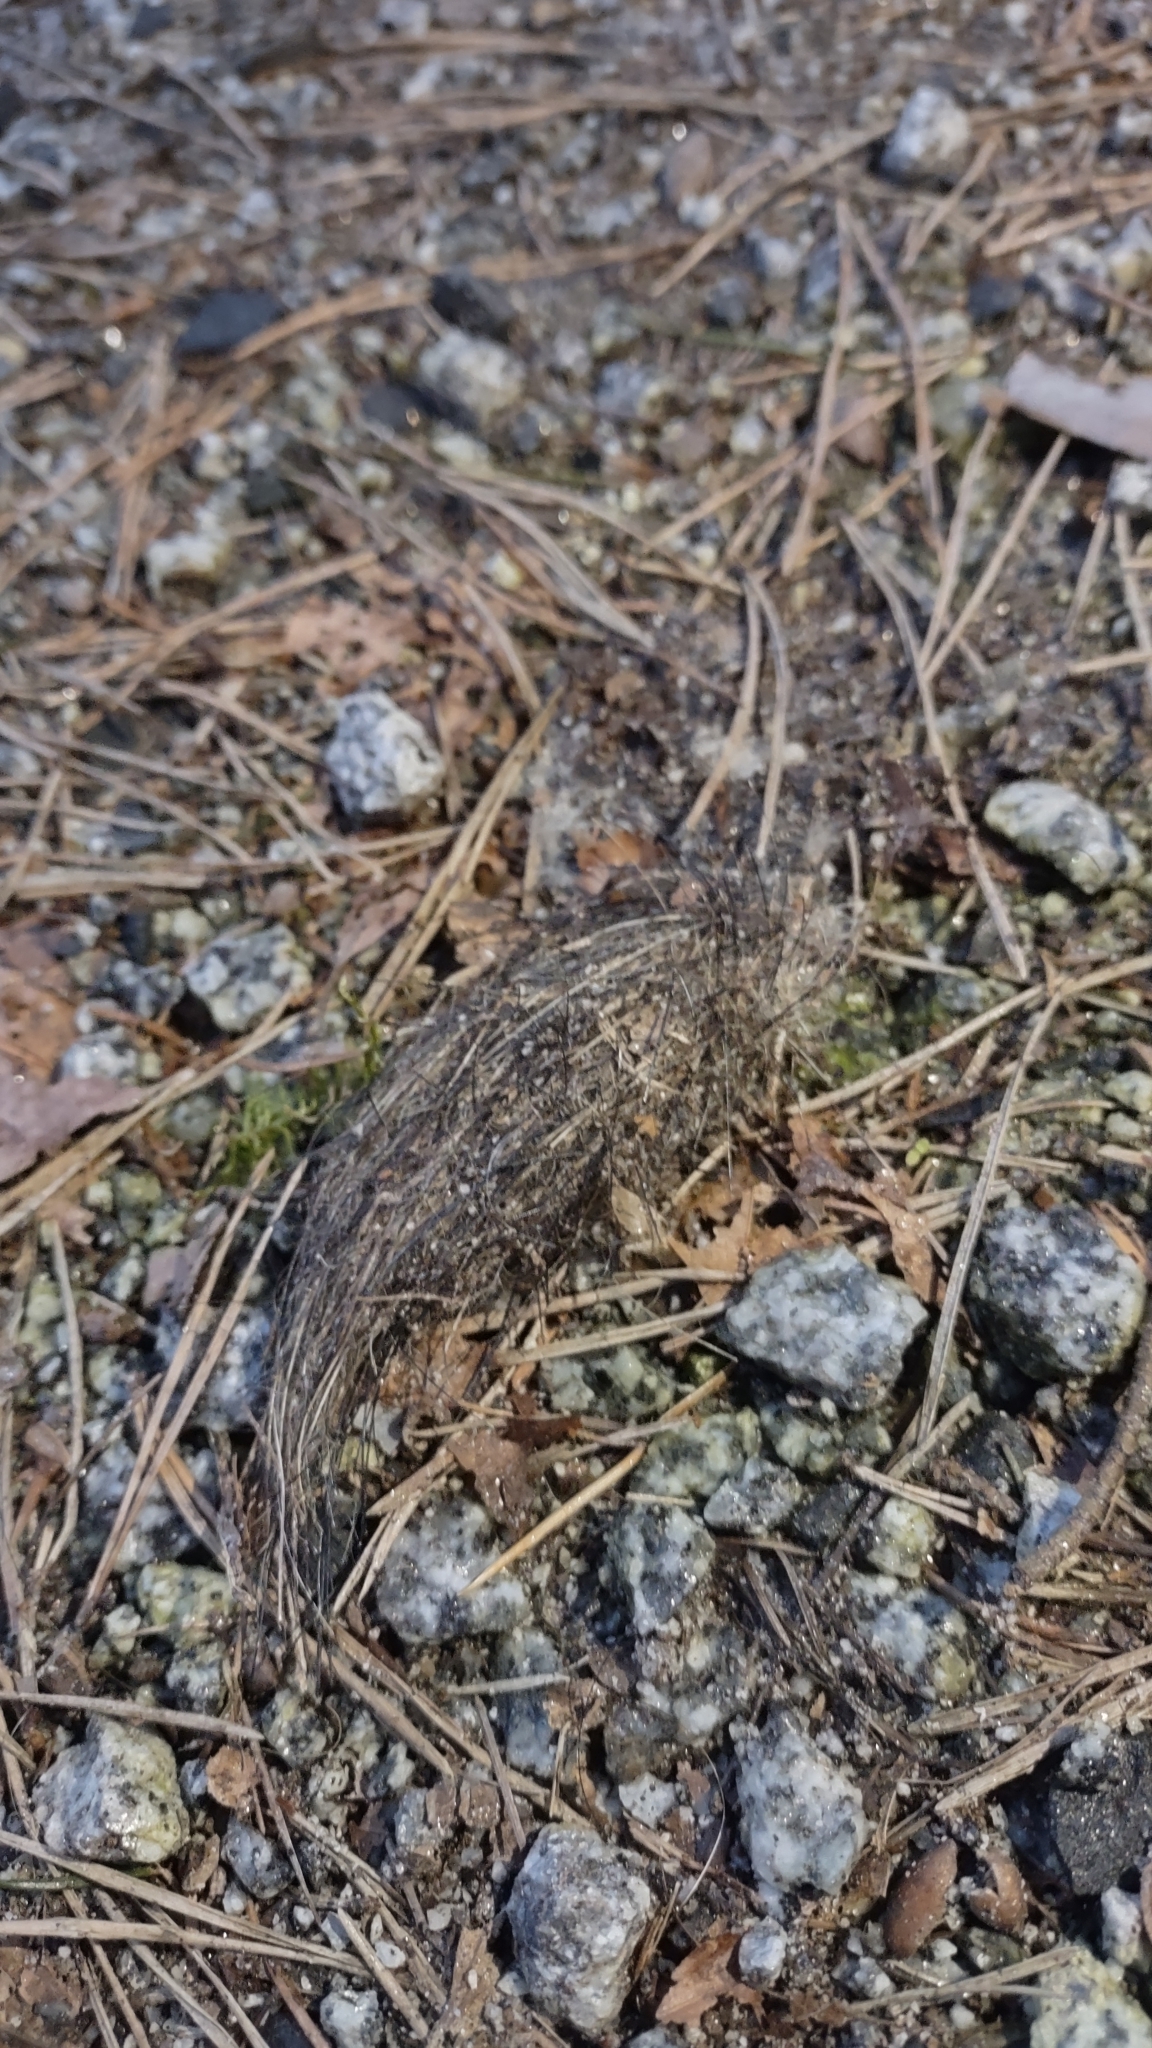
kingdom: Animalia
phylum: Chordata
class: Mammalia
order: Carnivora
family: Canidae
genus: Canis
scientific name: Canis lupus
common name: Gray wolf
